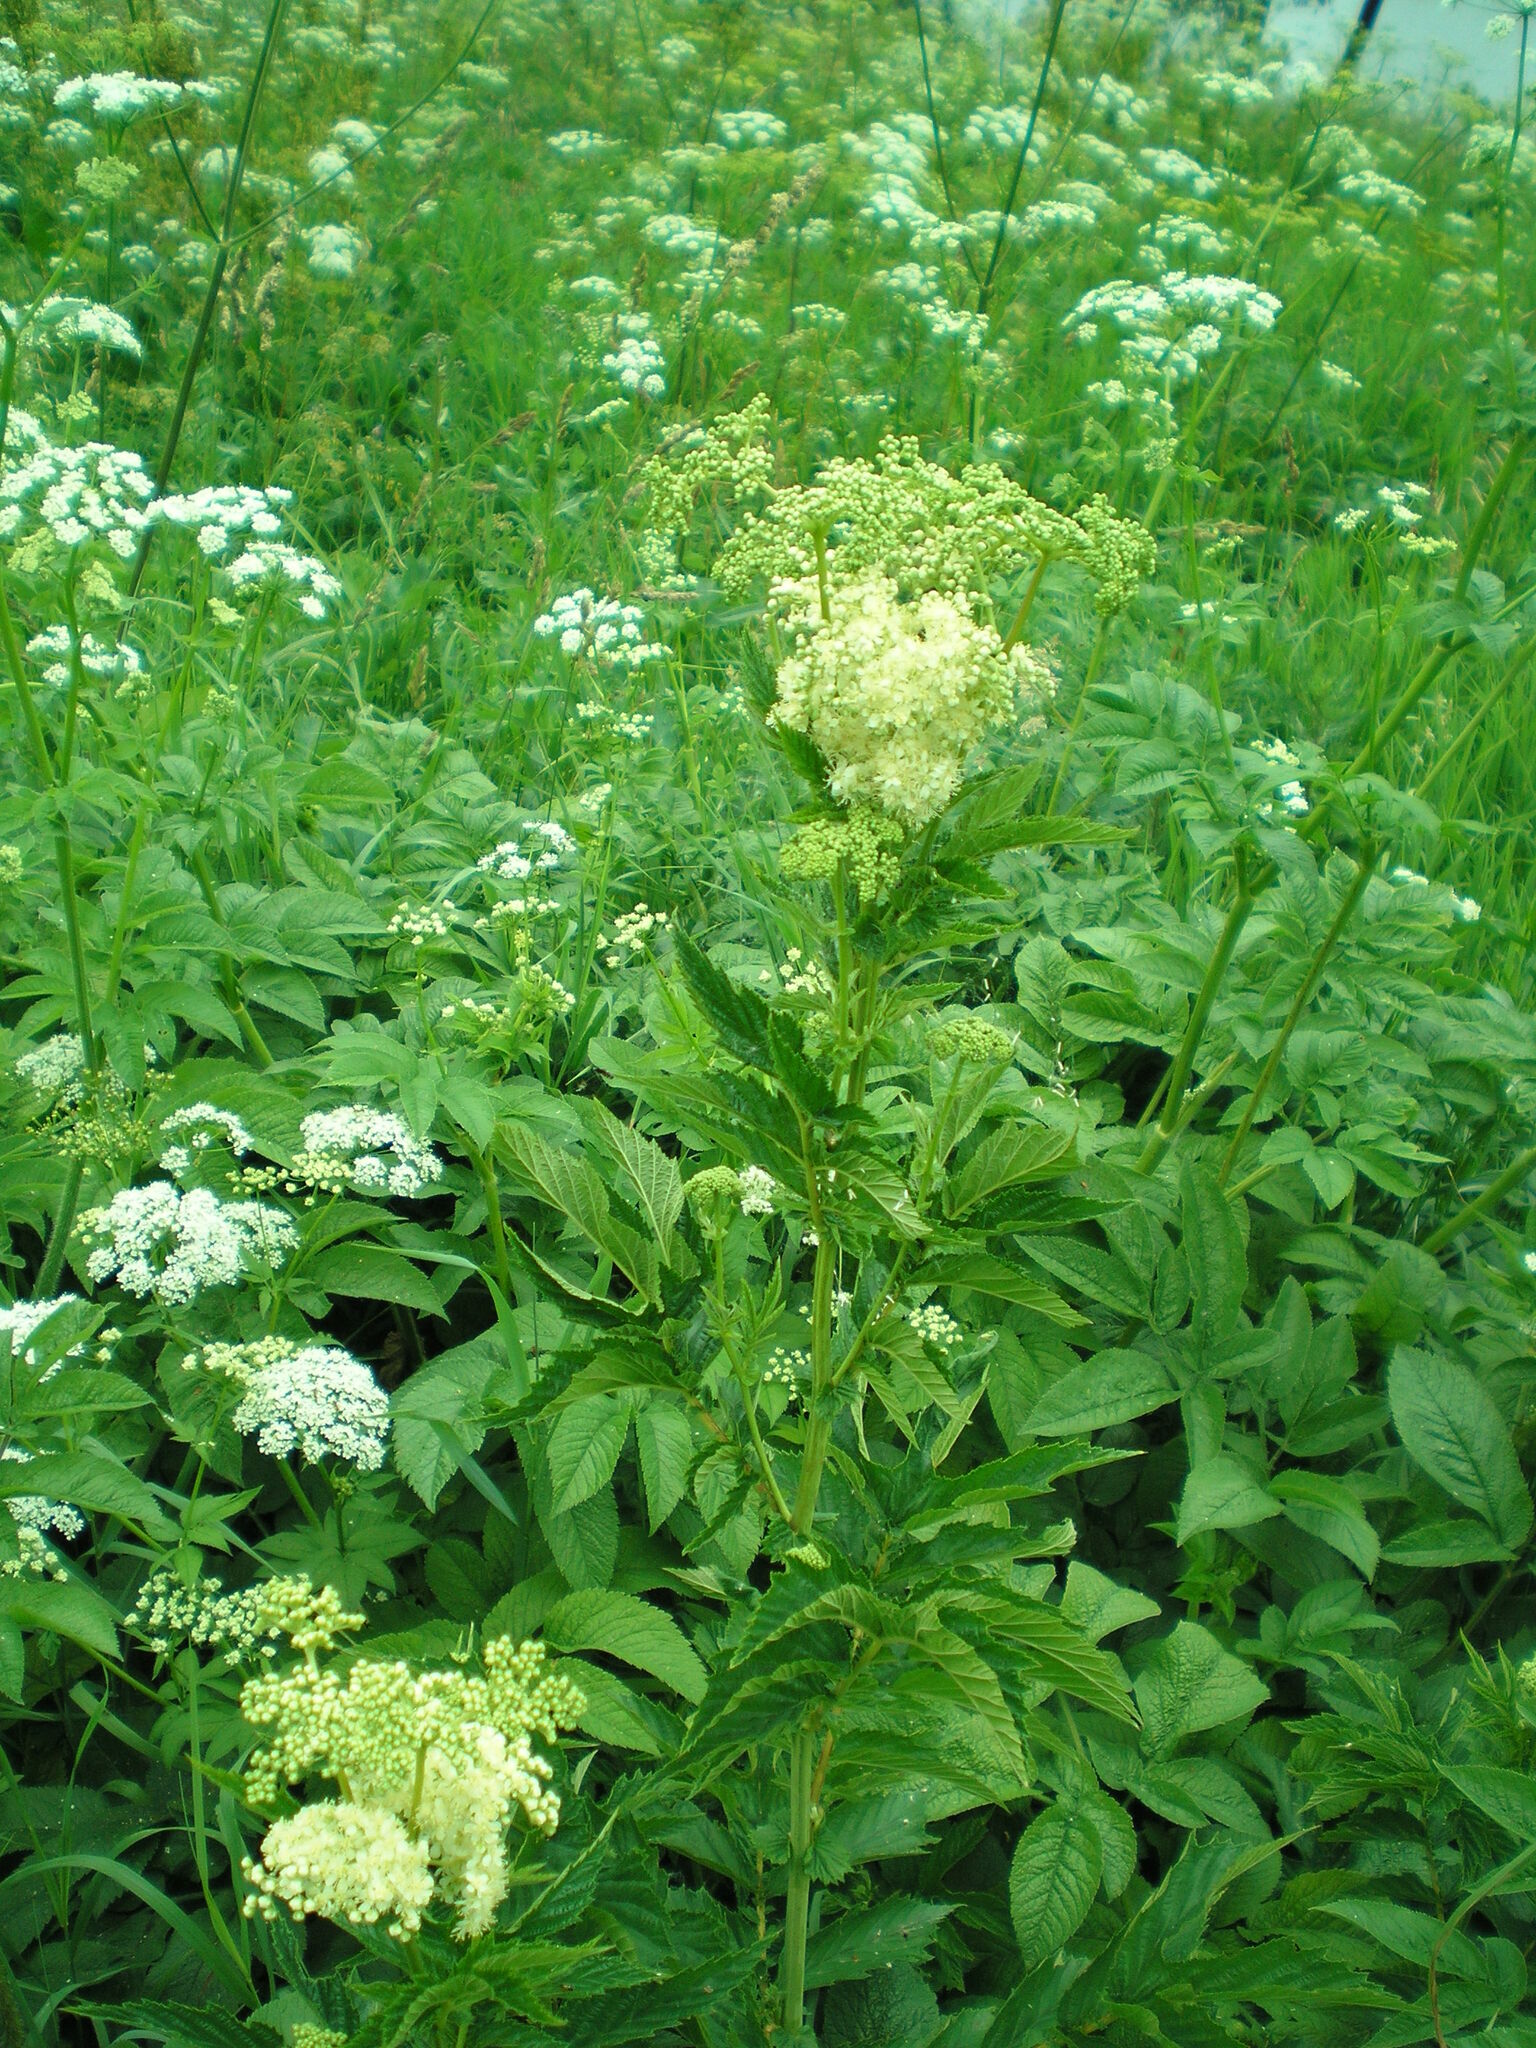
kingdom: Plantae
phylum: Tracheophyta
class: Magnoliopsida
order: Rosales
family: Rosaceae
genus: Filipendula
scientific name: Filipendula ulmaria
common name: Meadowsweet
